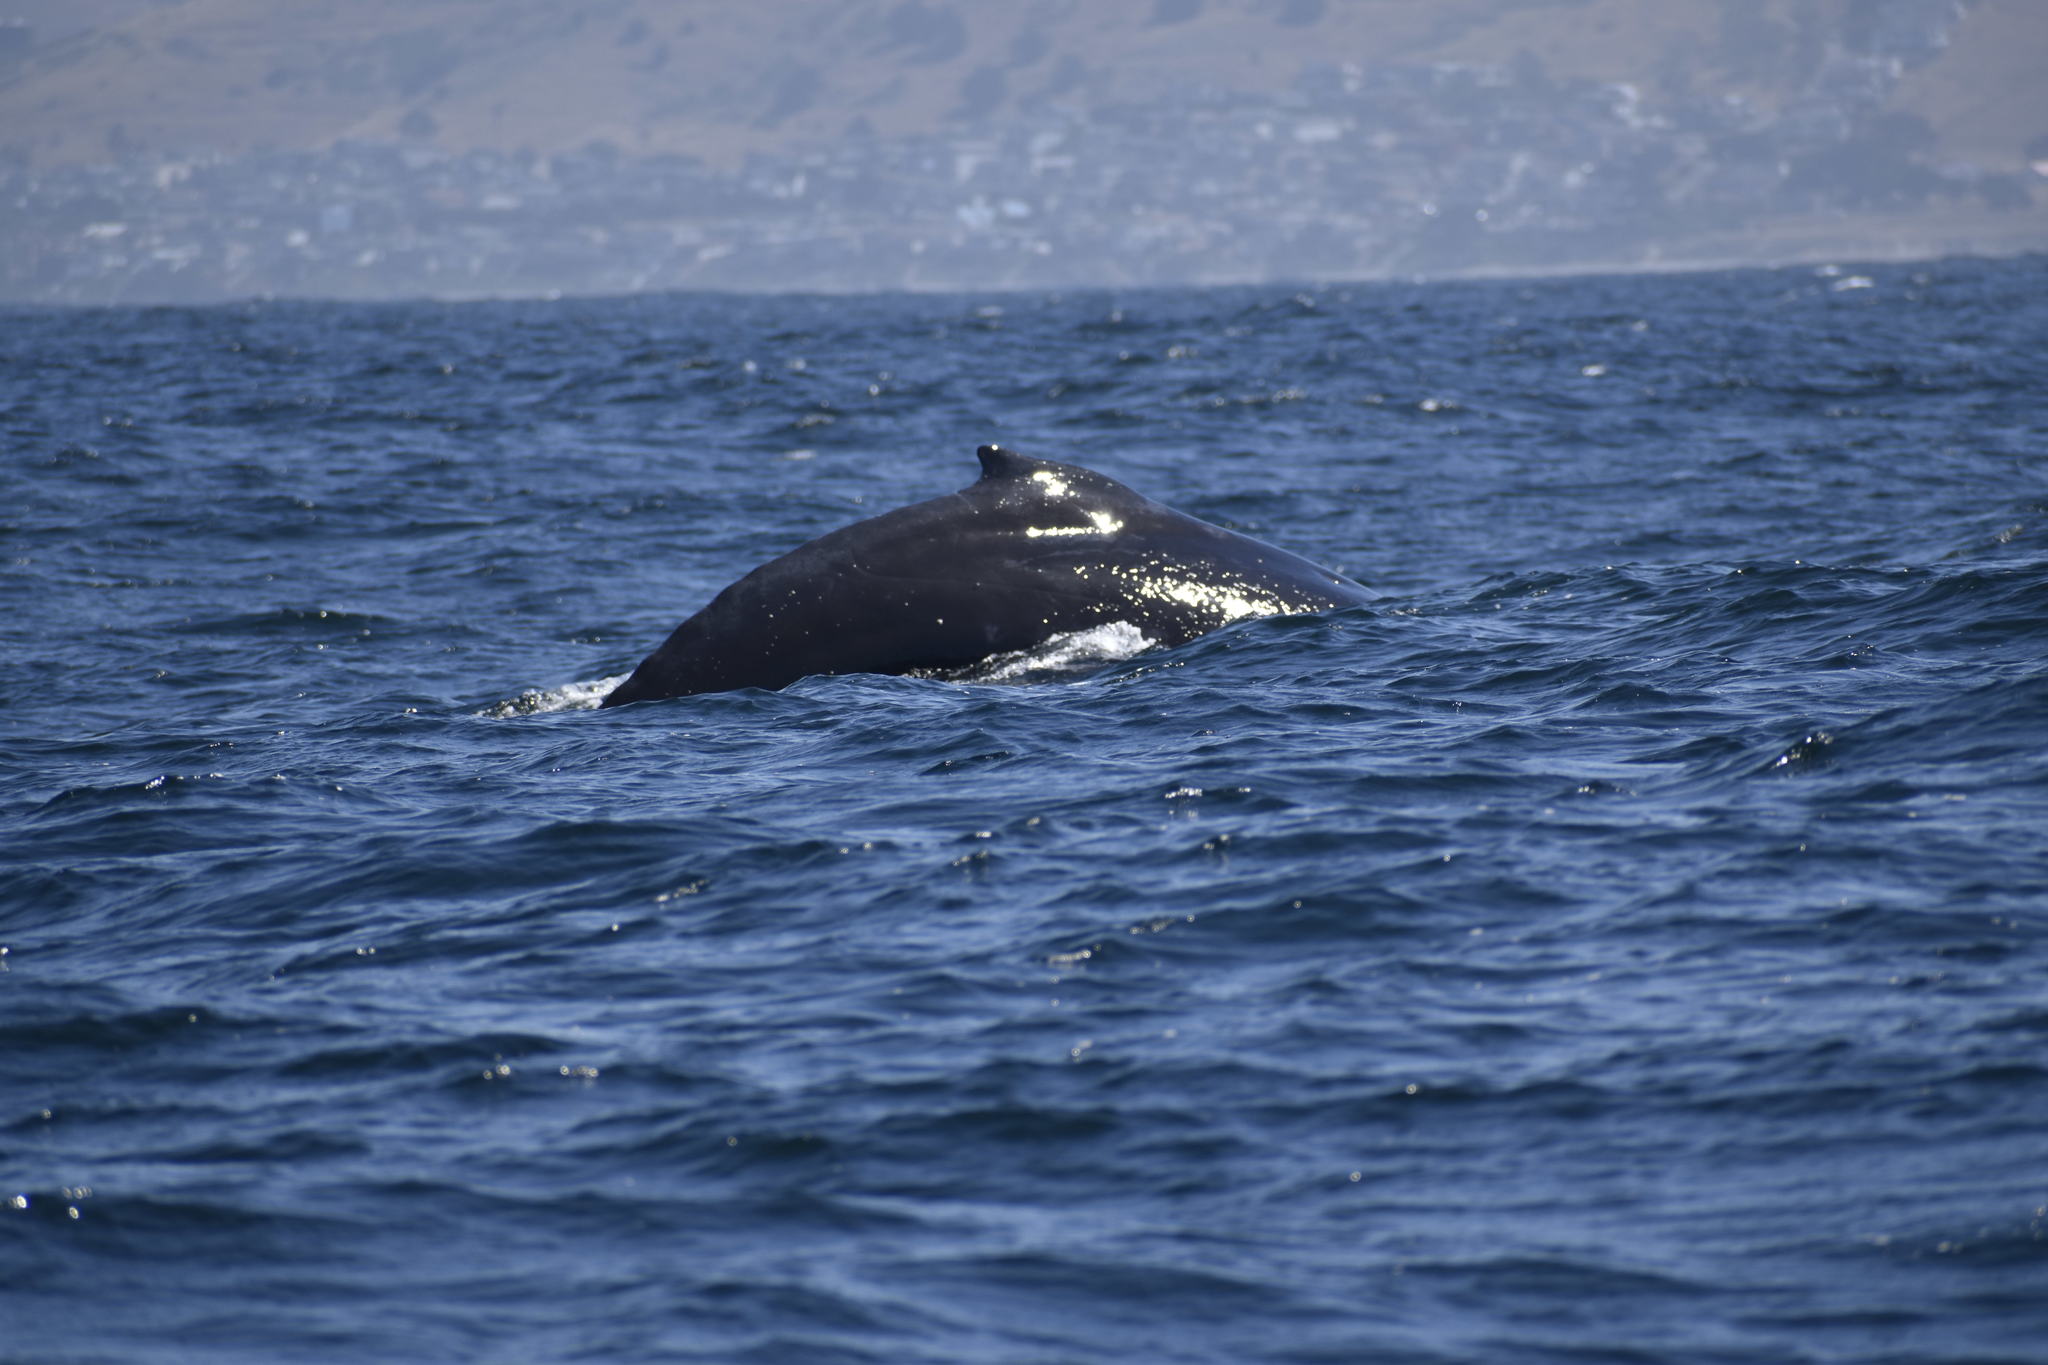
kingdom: Animalia
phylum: Chordata
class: Mammalia
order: Cetacea
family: Balaenopteridae
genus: Megaptera
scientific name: Megaptera novaeangliae
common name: Humpback whale
